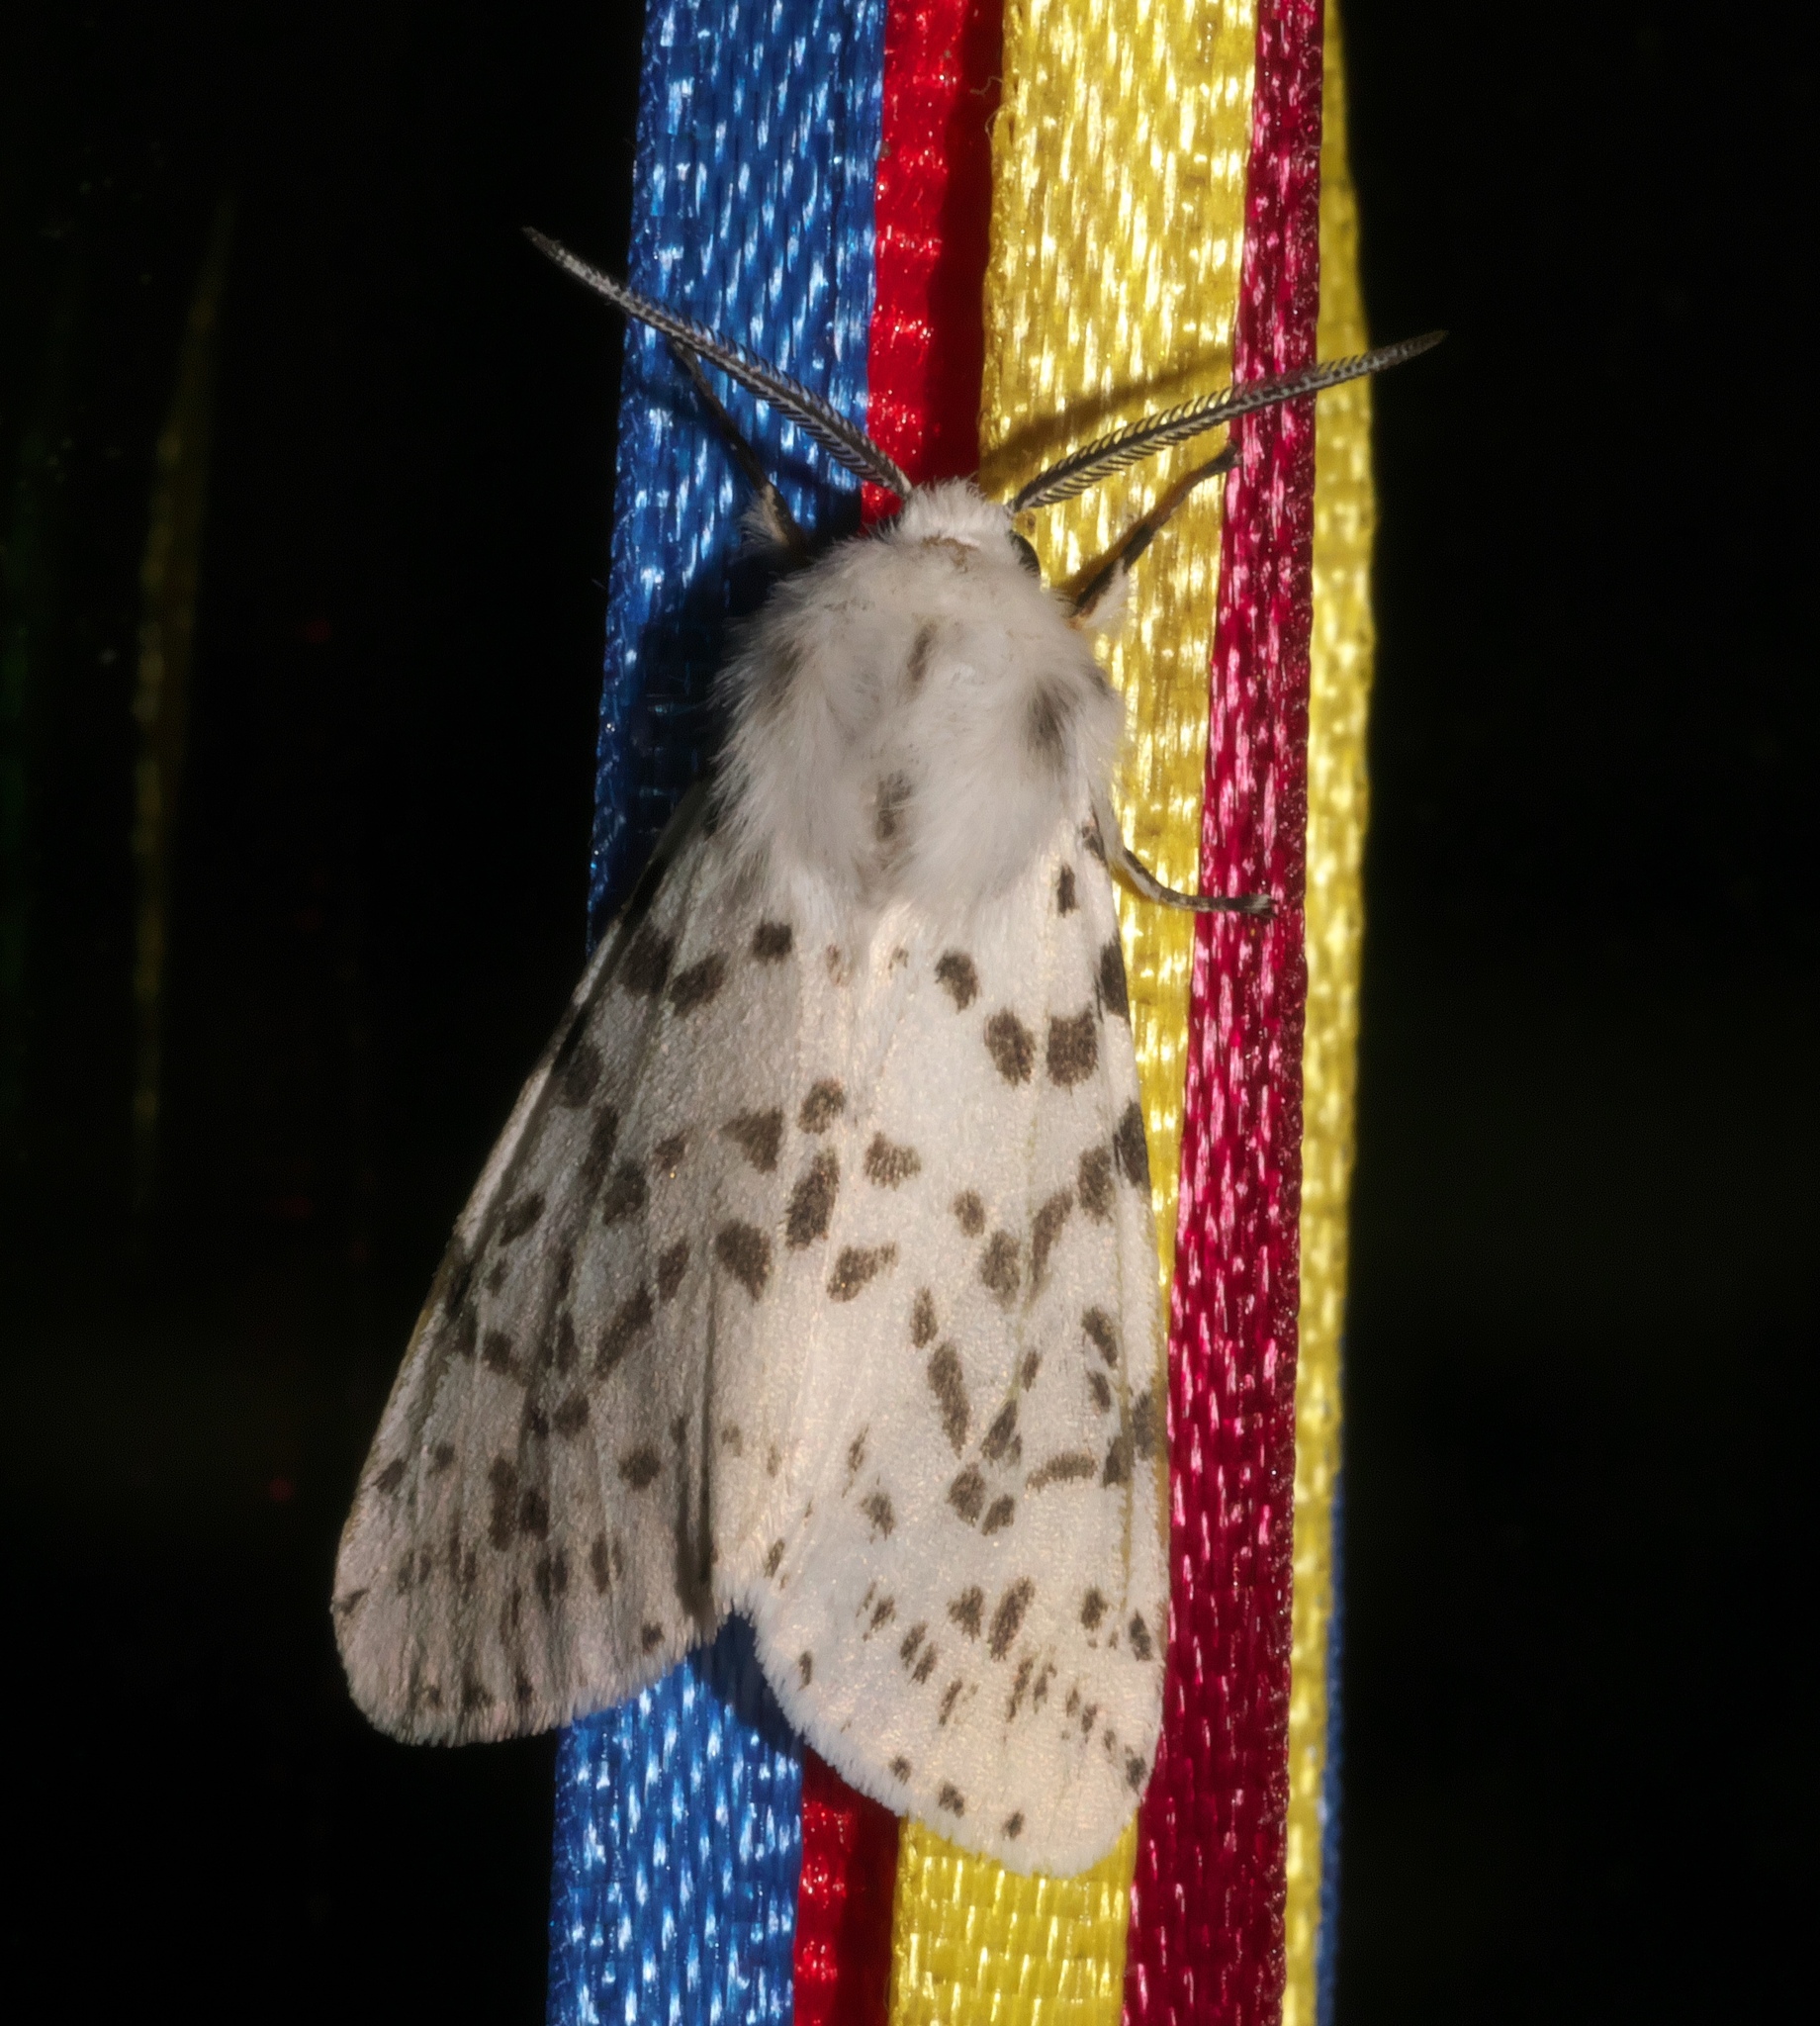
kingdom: Animalia
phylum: Arthropoda
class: Insecta
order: Lepidoptera
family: Erebidae
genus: Hyphantria
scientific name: Hyphantria cunea
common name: American white moth
